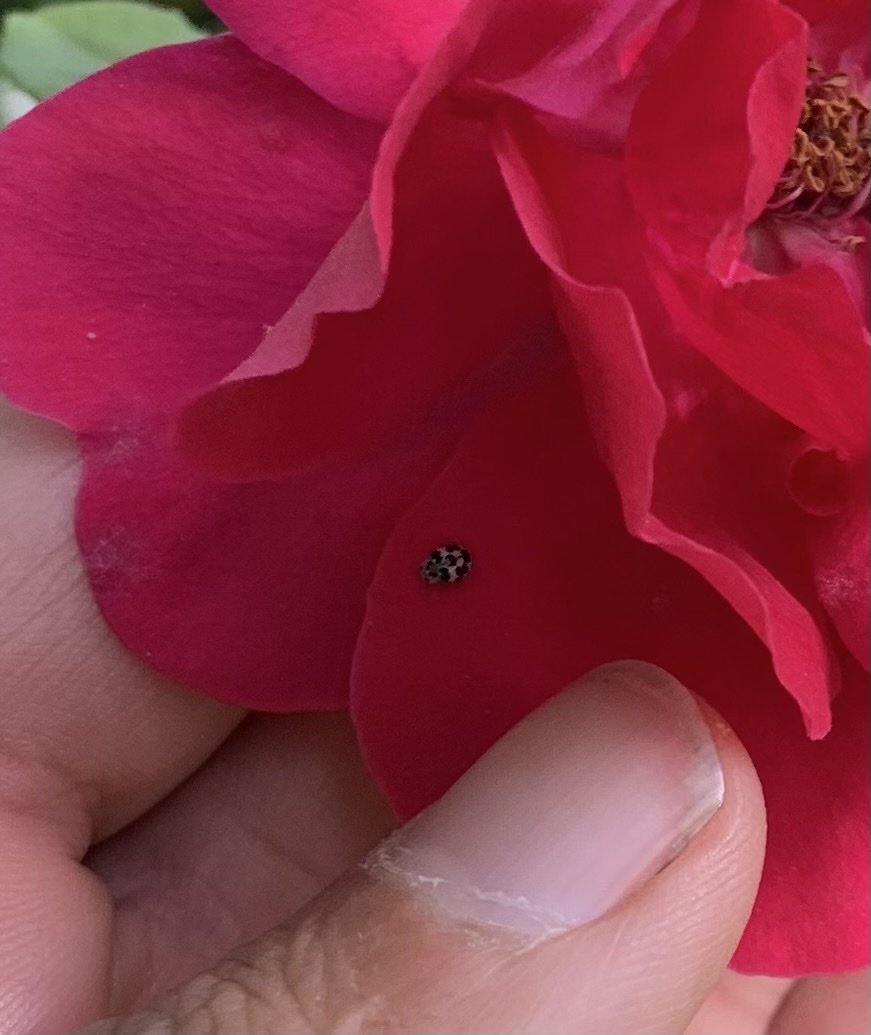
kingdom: Animalia
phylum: Arthropoda
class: Insecta
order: Coleoptera
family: Coccinellidae
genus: Psyllobora
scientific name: Psyllobora
